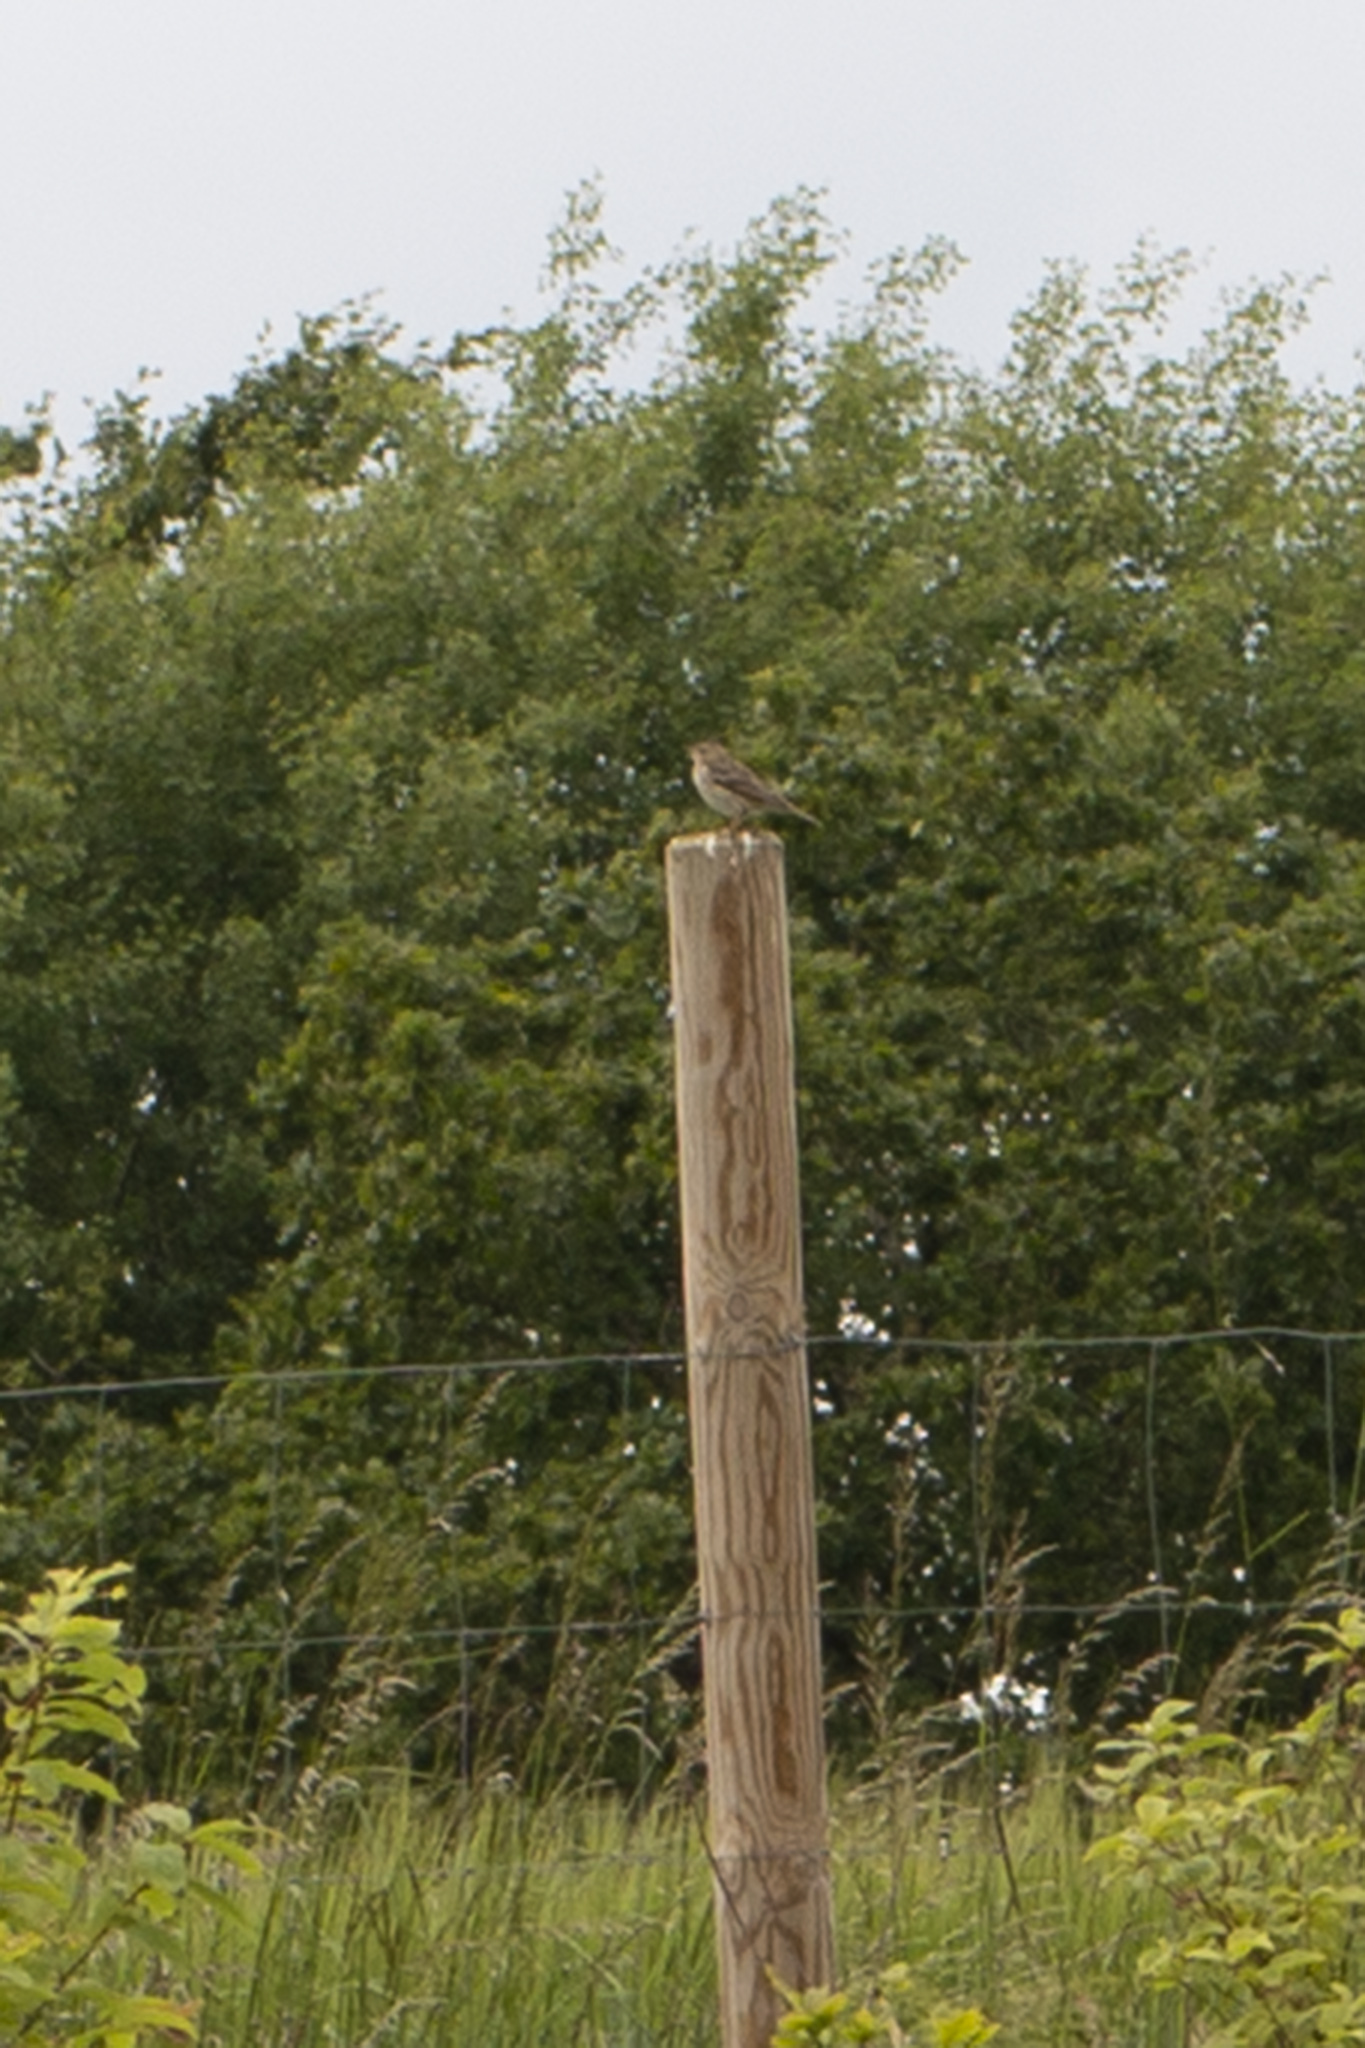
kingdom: Animalia
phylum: Chordata
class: Aves
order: Passeriformes
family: Motacillidae
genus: Anthus
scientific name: Anthus pratensis
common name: Meadow pipit
